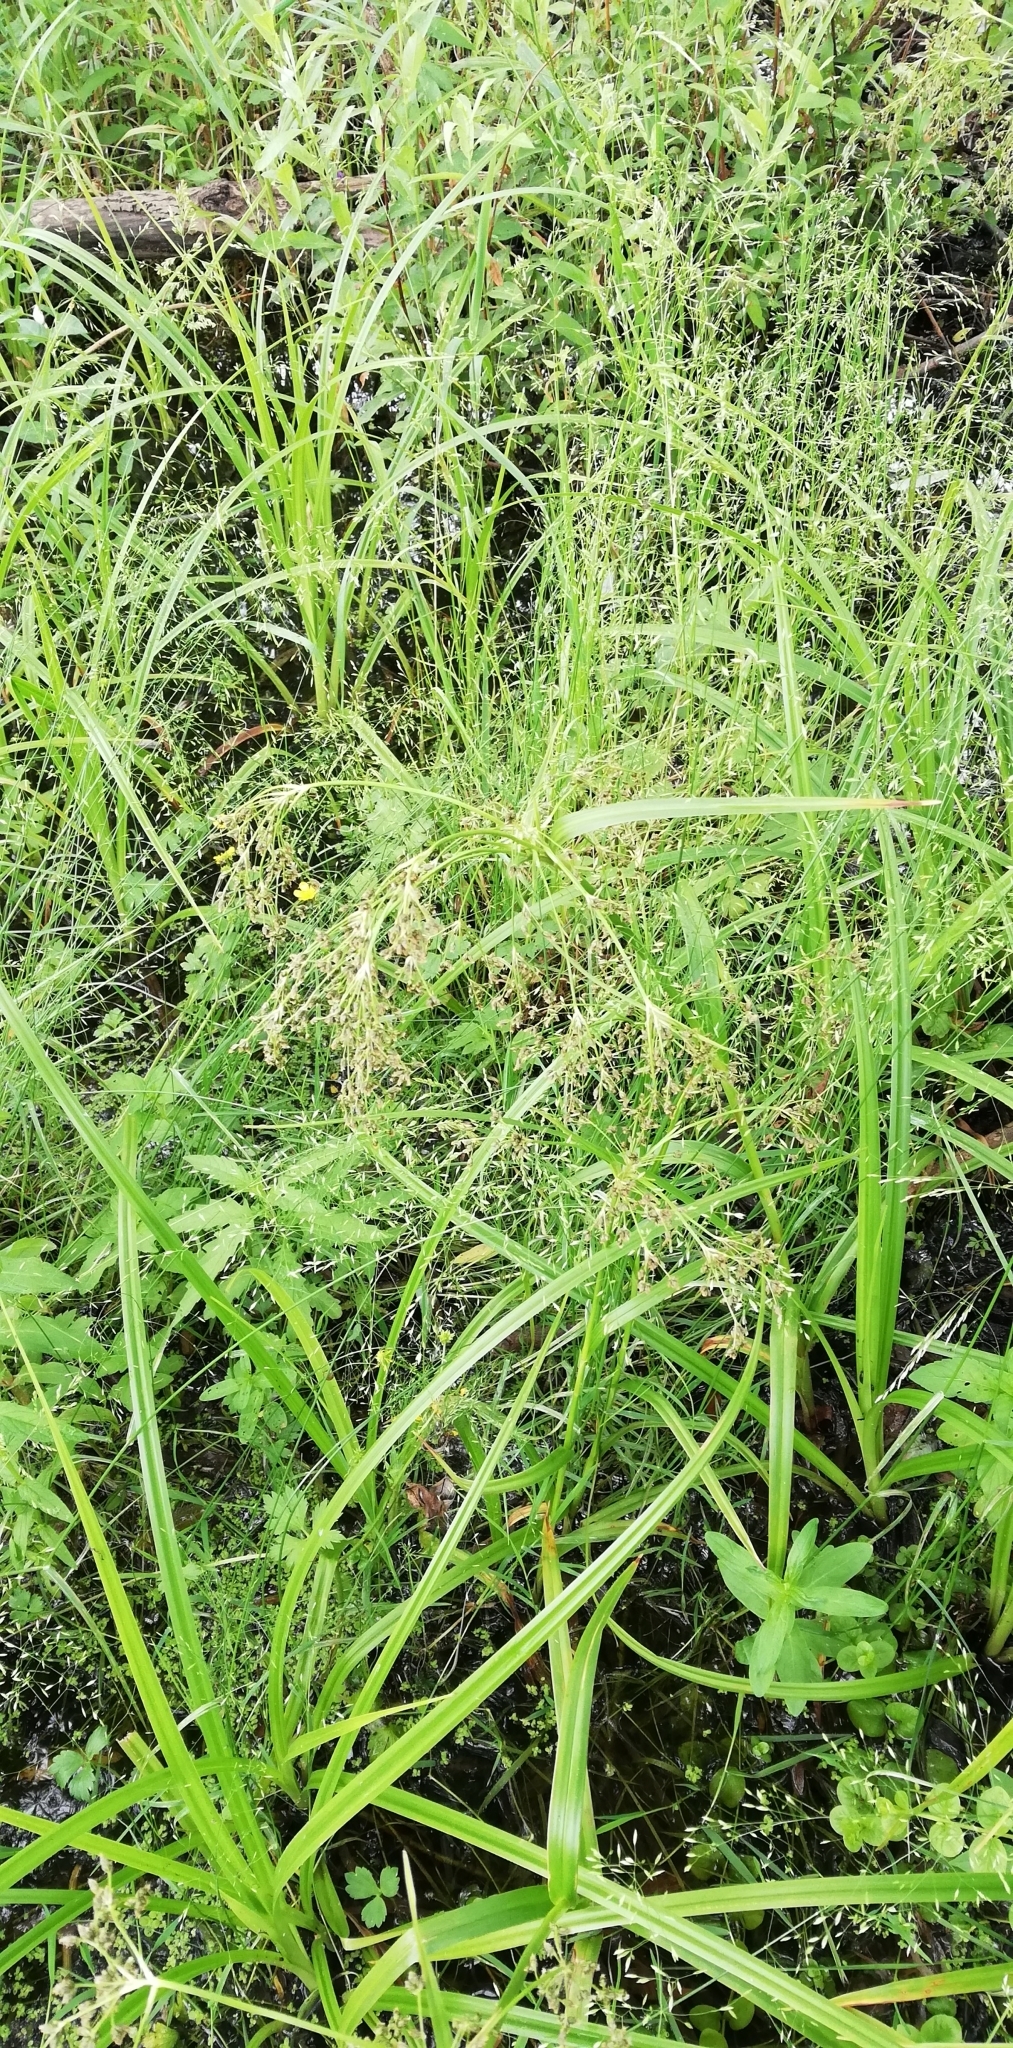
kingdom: Plantae
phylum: Tracheophyta
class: Liliopsida
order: Poales
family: Cyperaceae
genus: Scirpus
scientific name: Scirpus sylvaticus
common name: Wood club-rush
